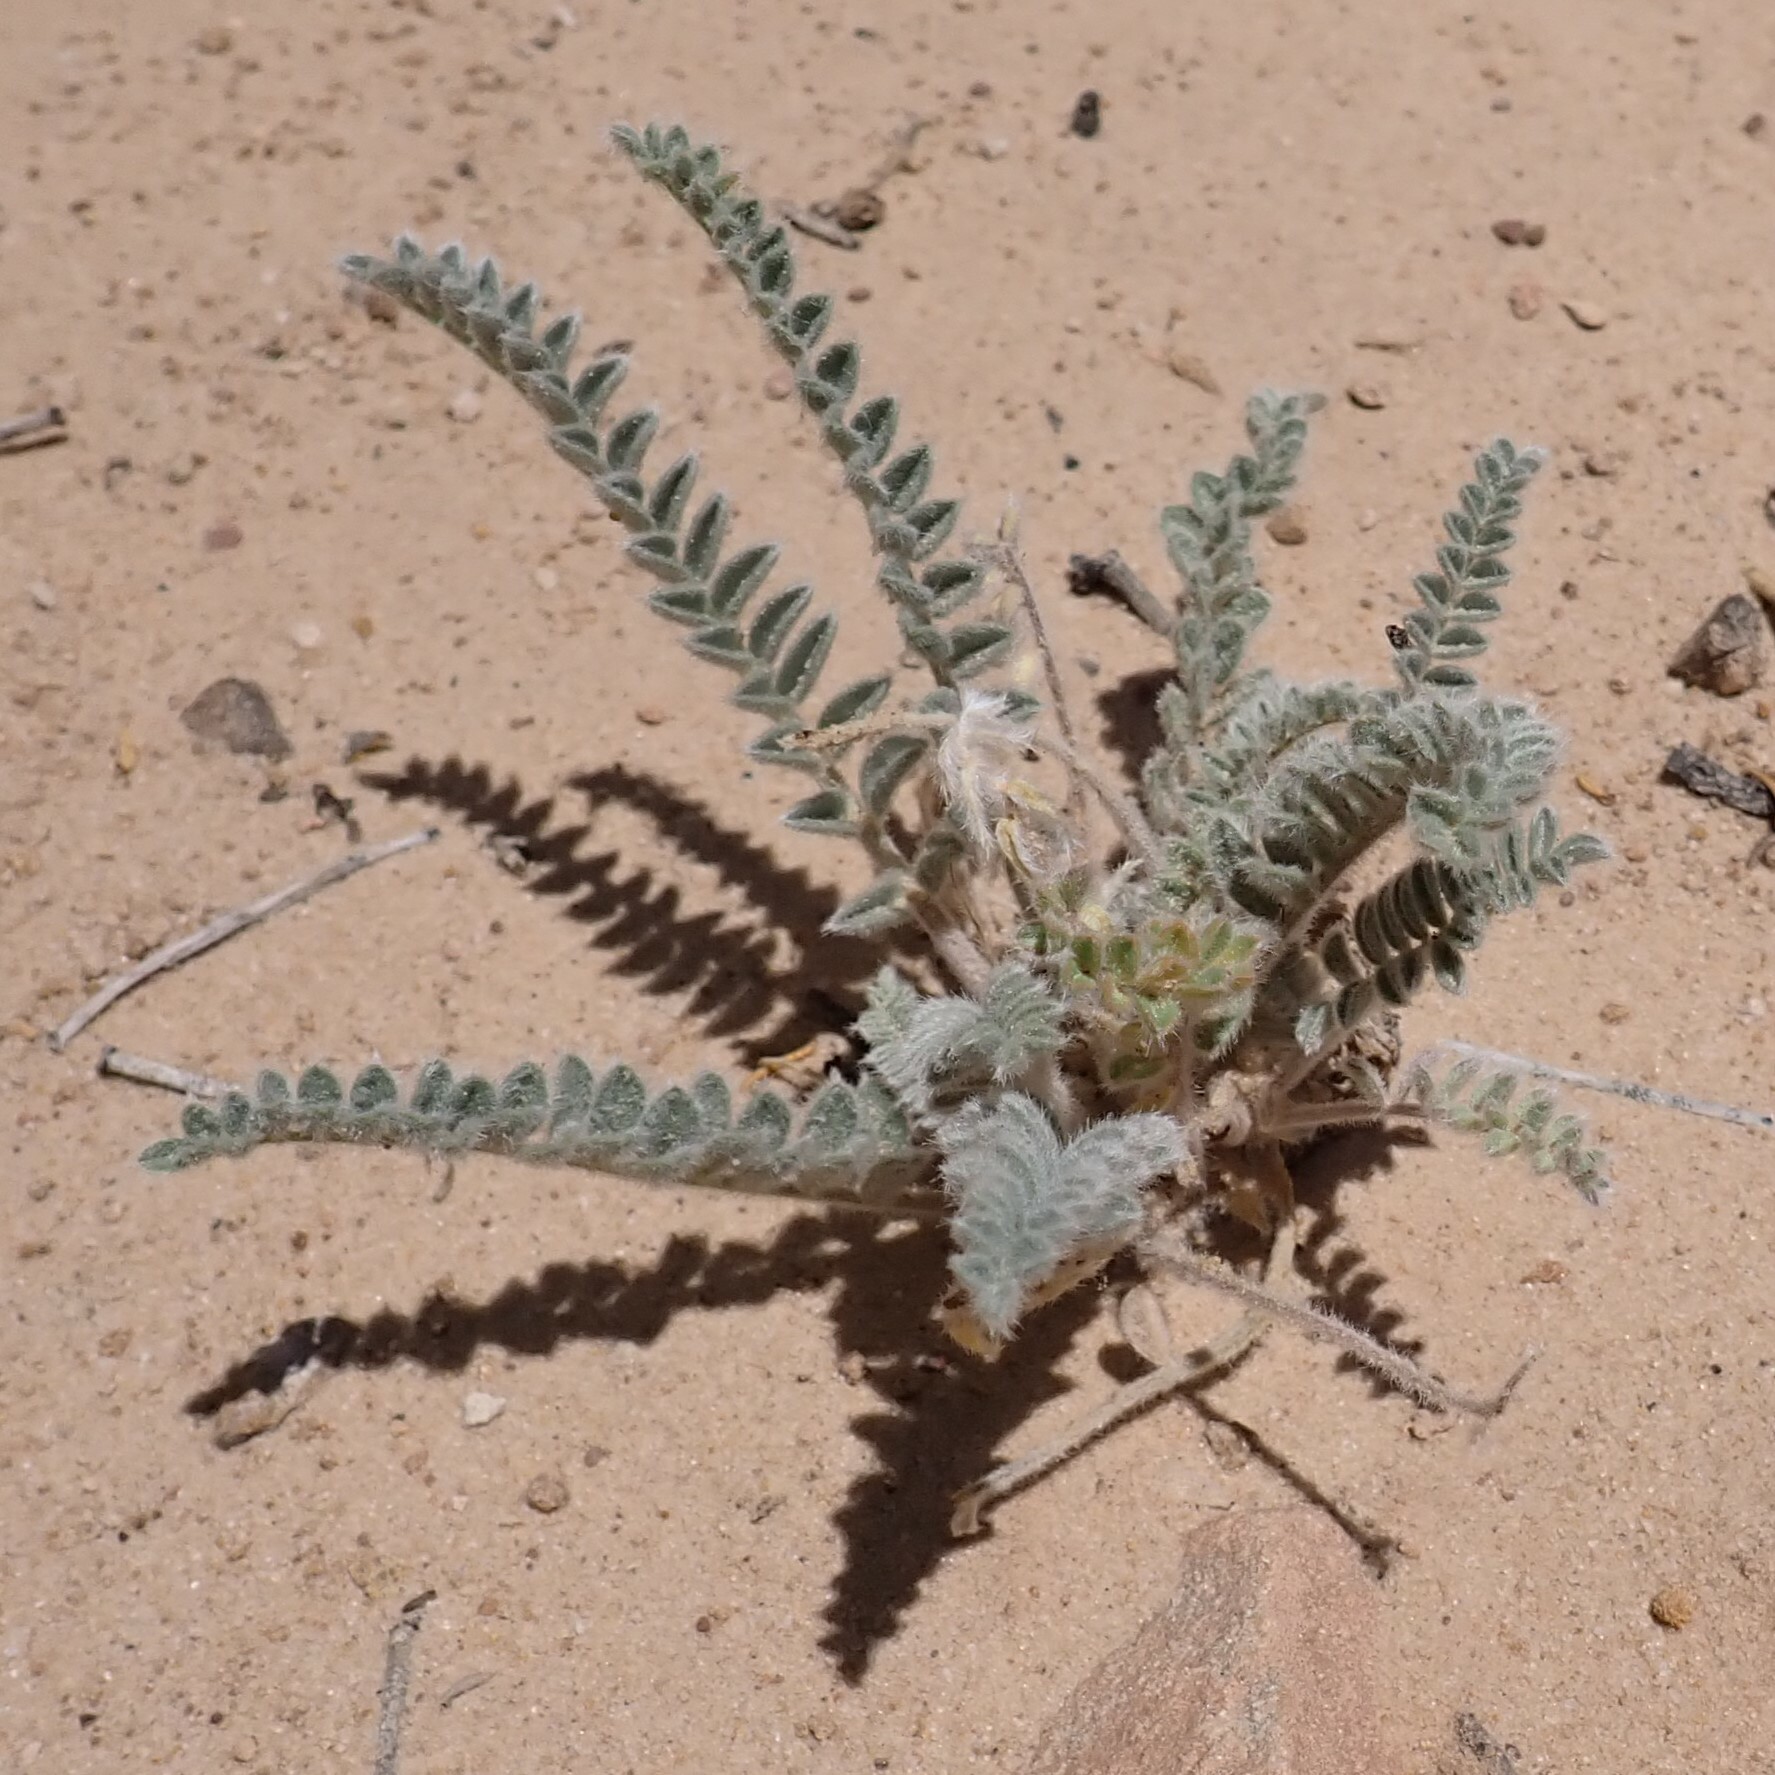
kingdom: Plantae
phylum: Tracheophyta
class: Magnoliopsida
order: Fabales
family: Fabaceae
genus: Astragalus
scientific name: Astragalus mollissimus
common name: Woolly locoweed
